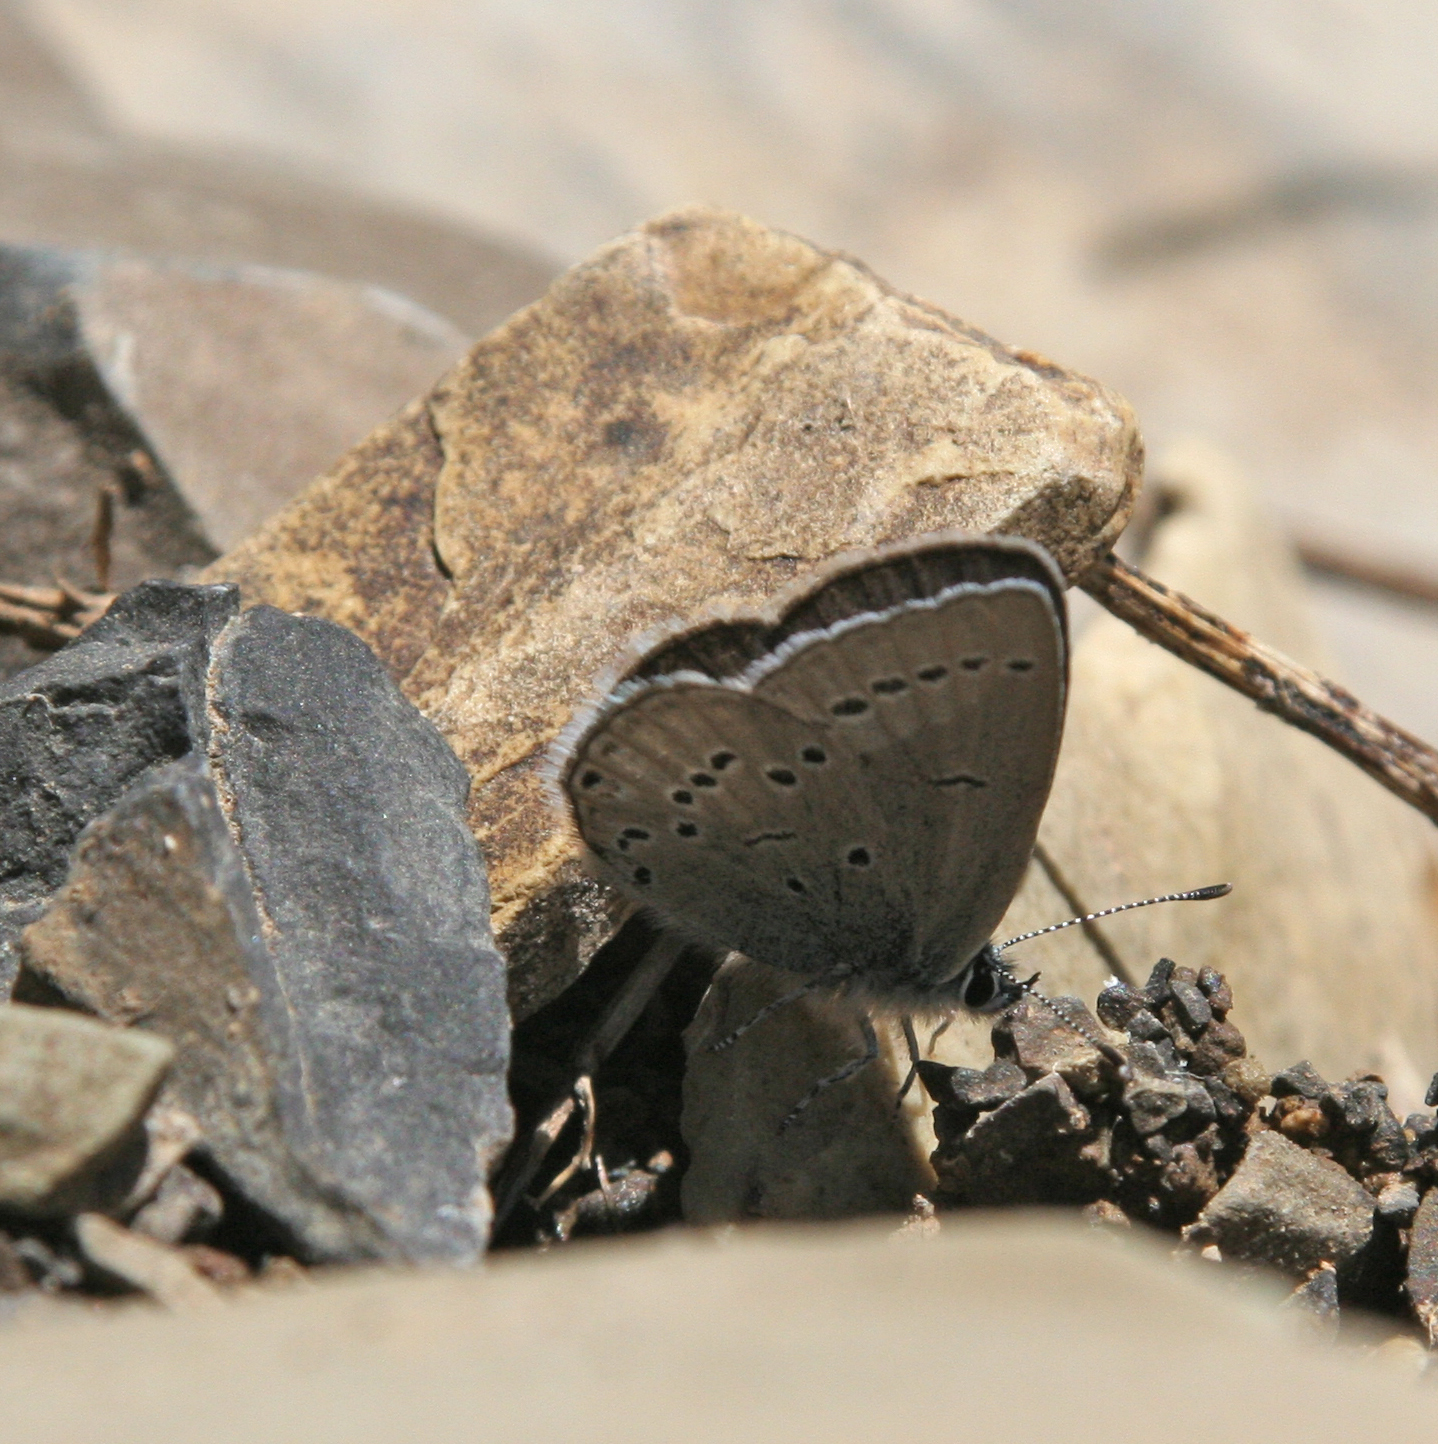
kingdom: Animalia
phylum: Arthropoda
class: Insecta
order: Lepidoptera
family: Lycaenidae
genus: Cupido
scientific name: Cupido staudingeri
